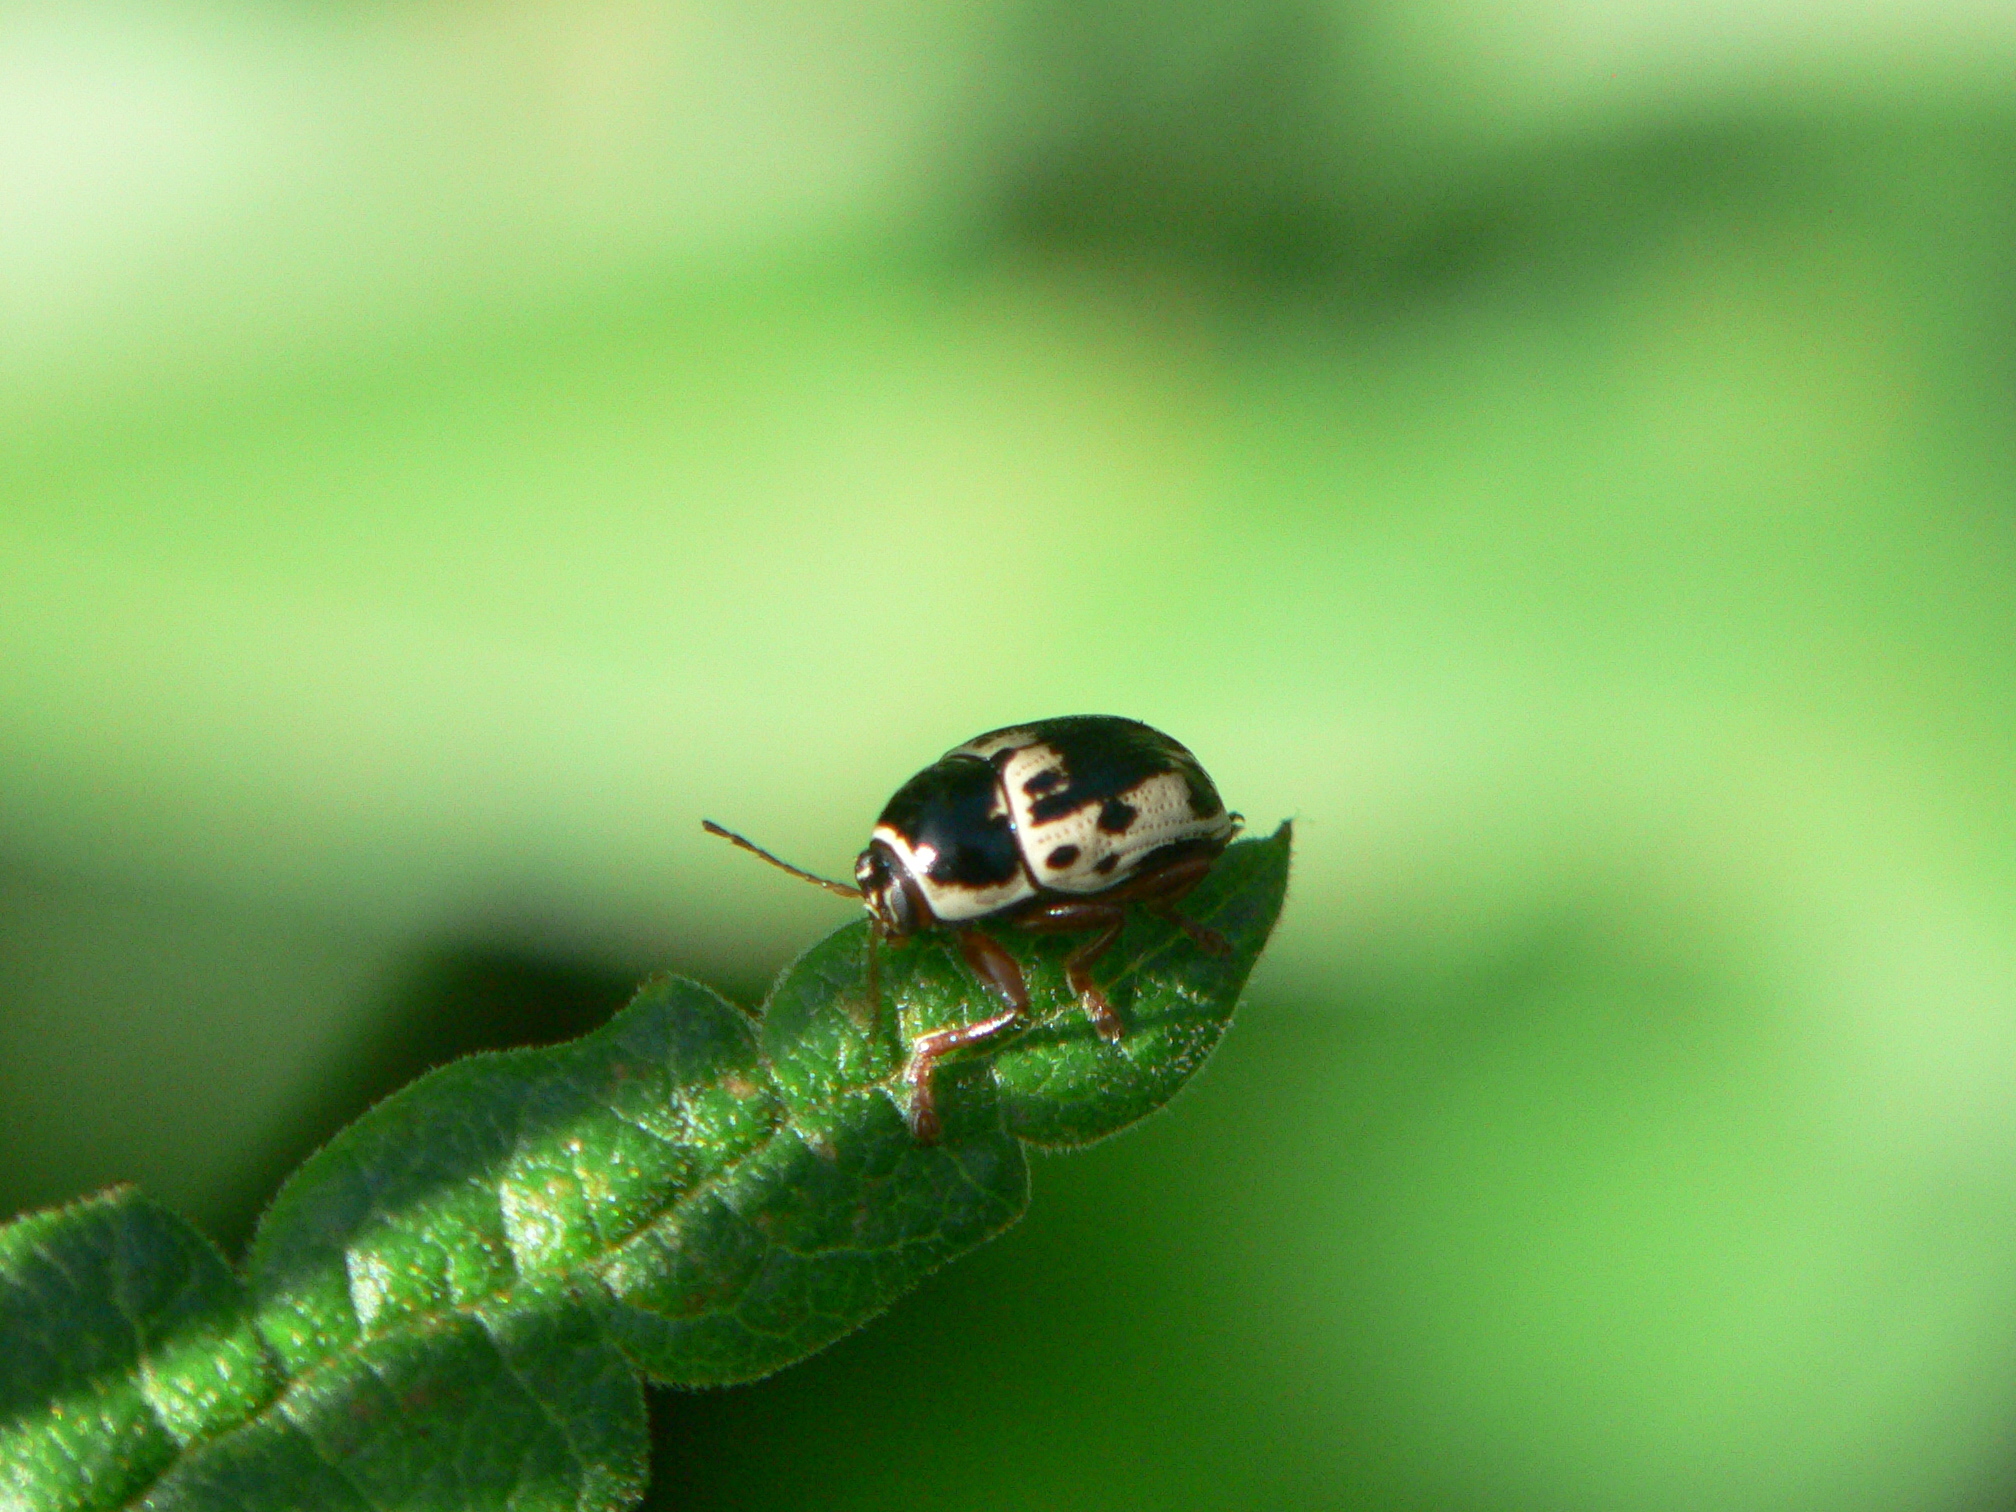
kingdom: Animalia
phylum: Arthropoda
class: Insecta
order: Coleoptera
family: Chrysomelidae
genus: Cryptocephalus
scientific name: Cryptocephalus mutabilis
